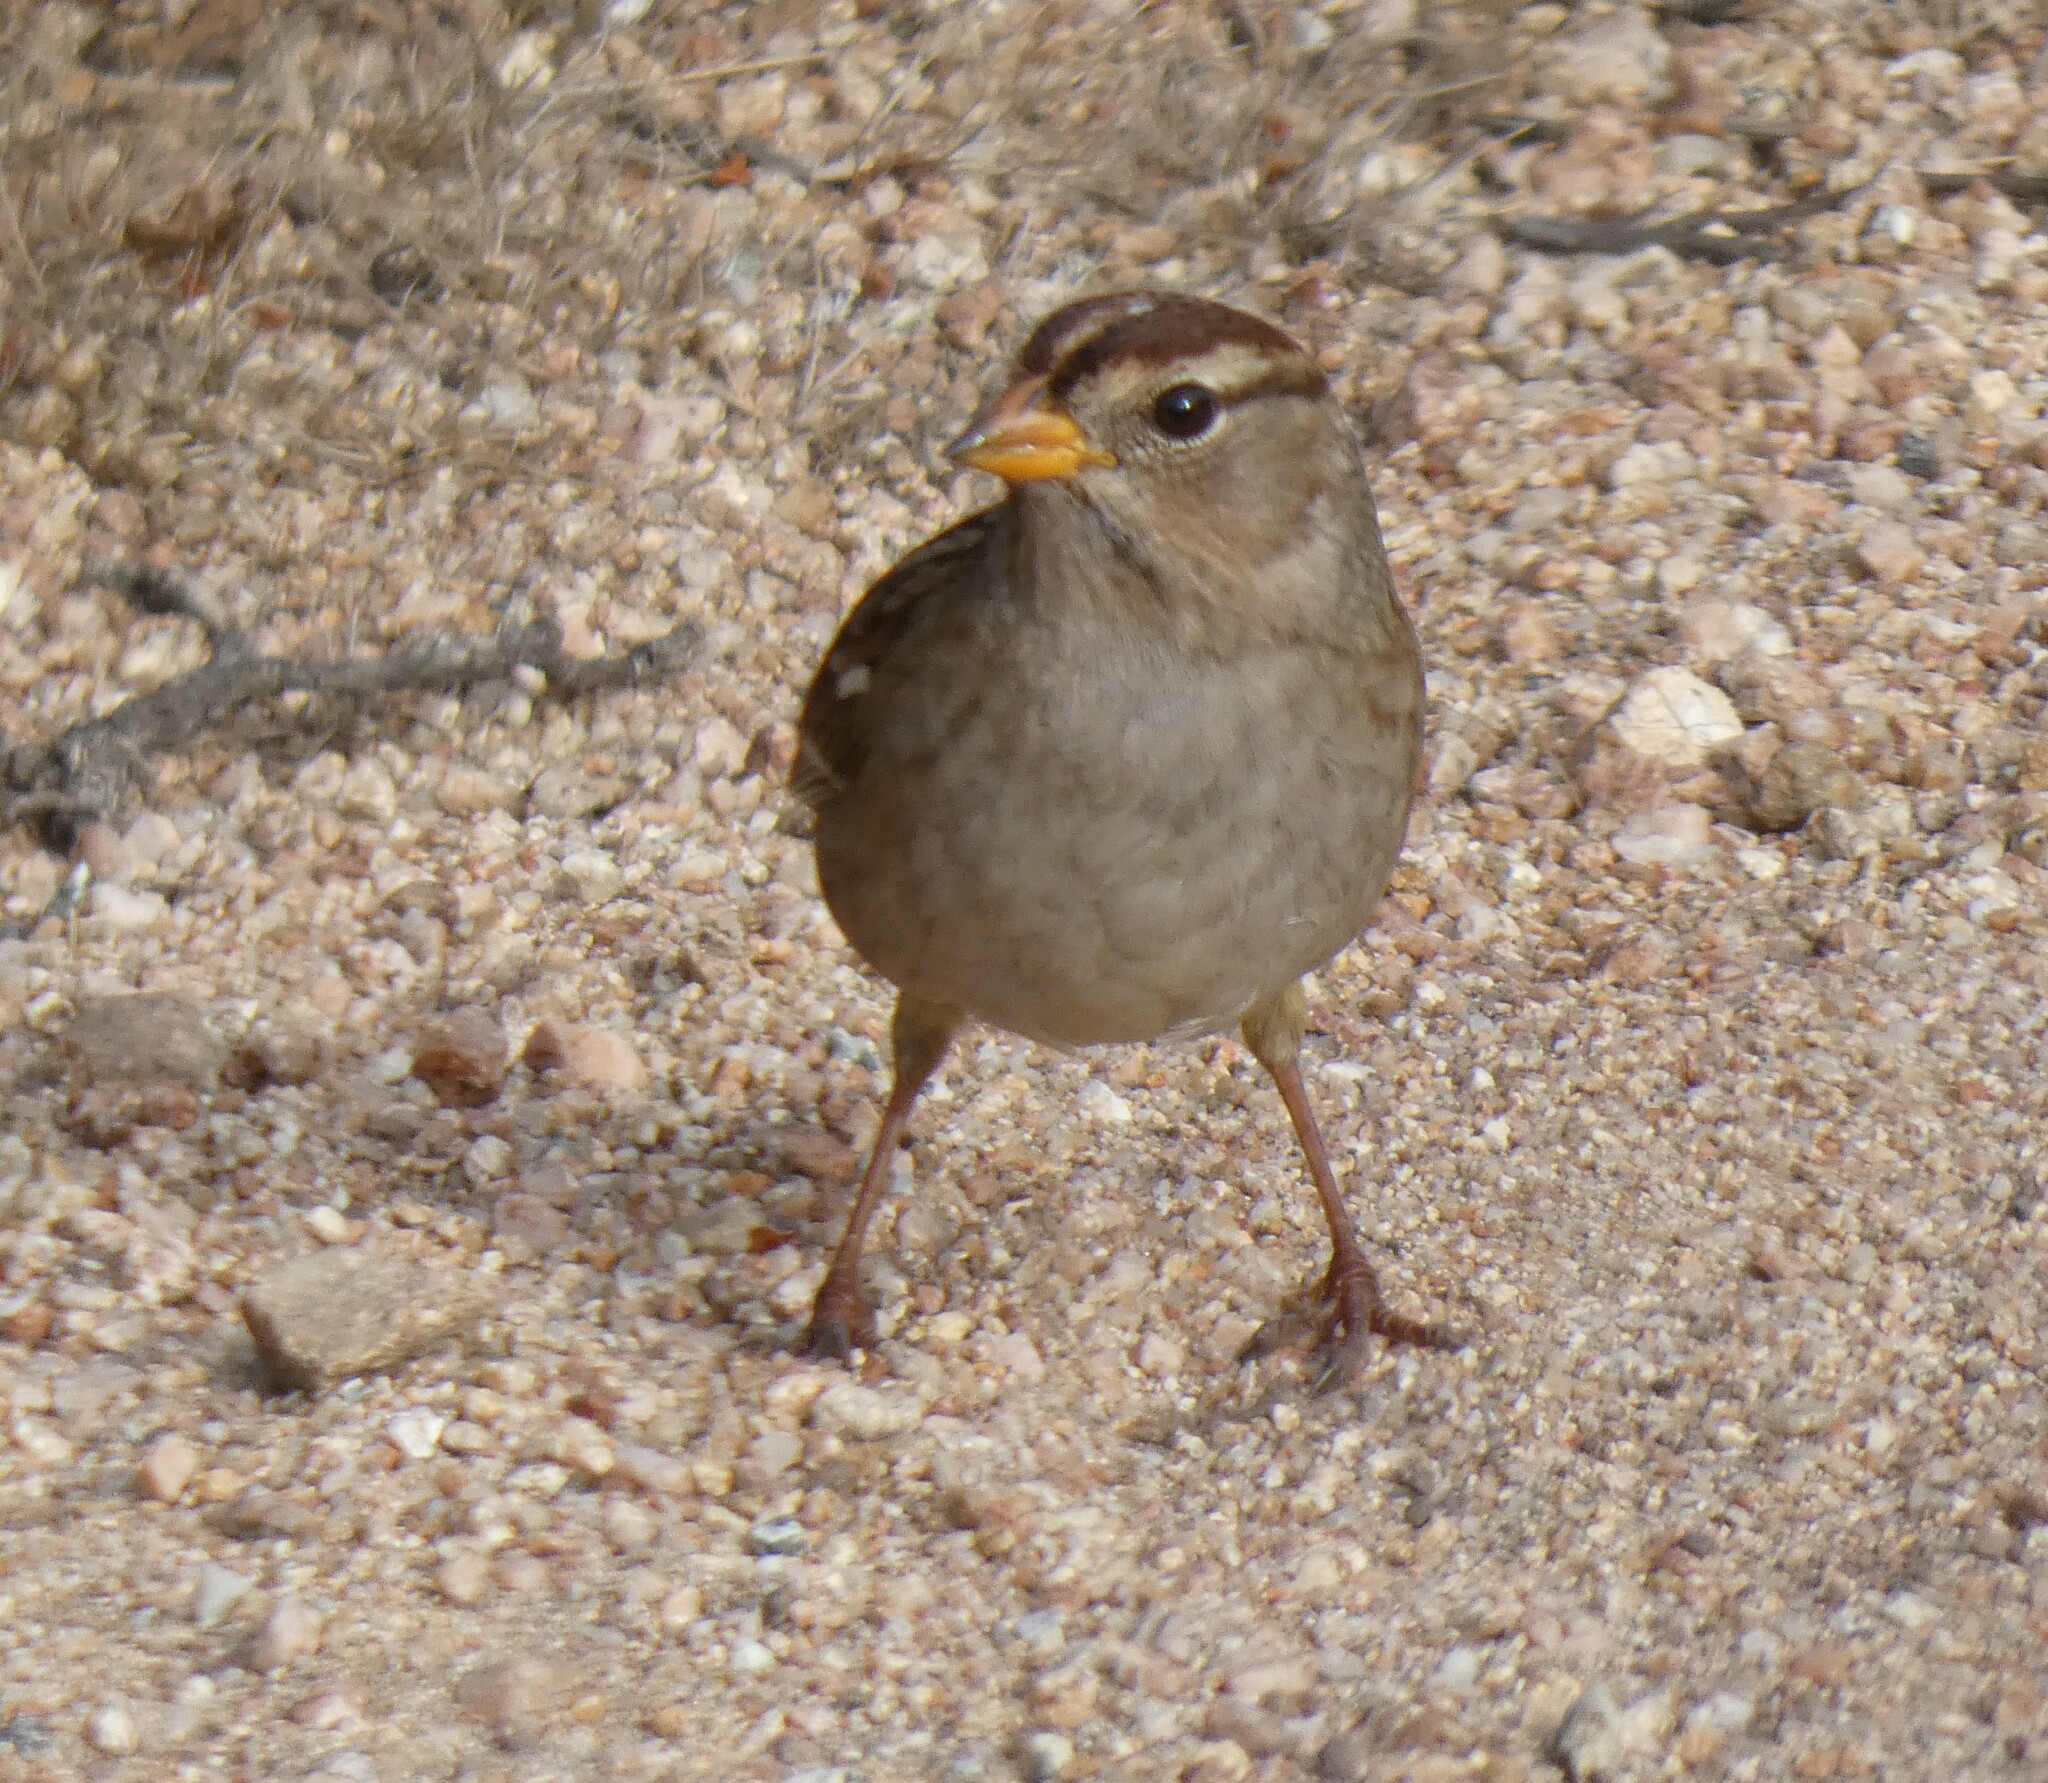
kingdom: Animalia
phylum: Chordata
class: Aves
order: Passeriformes
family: Passerellidae
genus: Zonotrichia
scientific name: Zonotrichia leucophrys
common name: White-crowned sparrow
